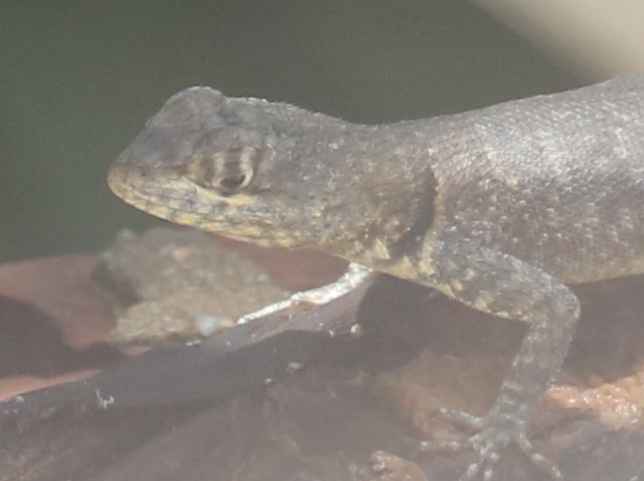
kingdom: Animalia
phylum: Chordata
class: Squamata
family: Tropiduridae
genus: Tropidurus
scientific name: Tropidurus hispidus
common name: Peters' lava lizard
